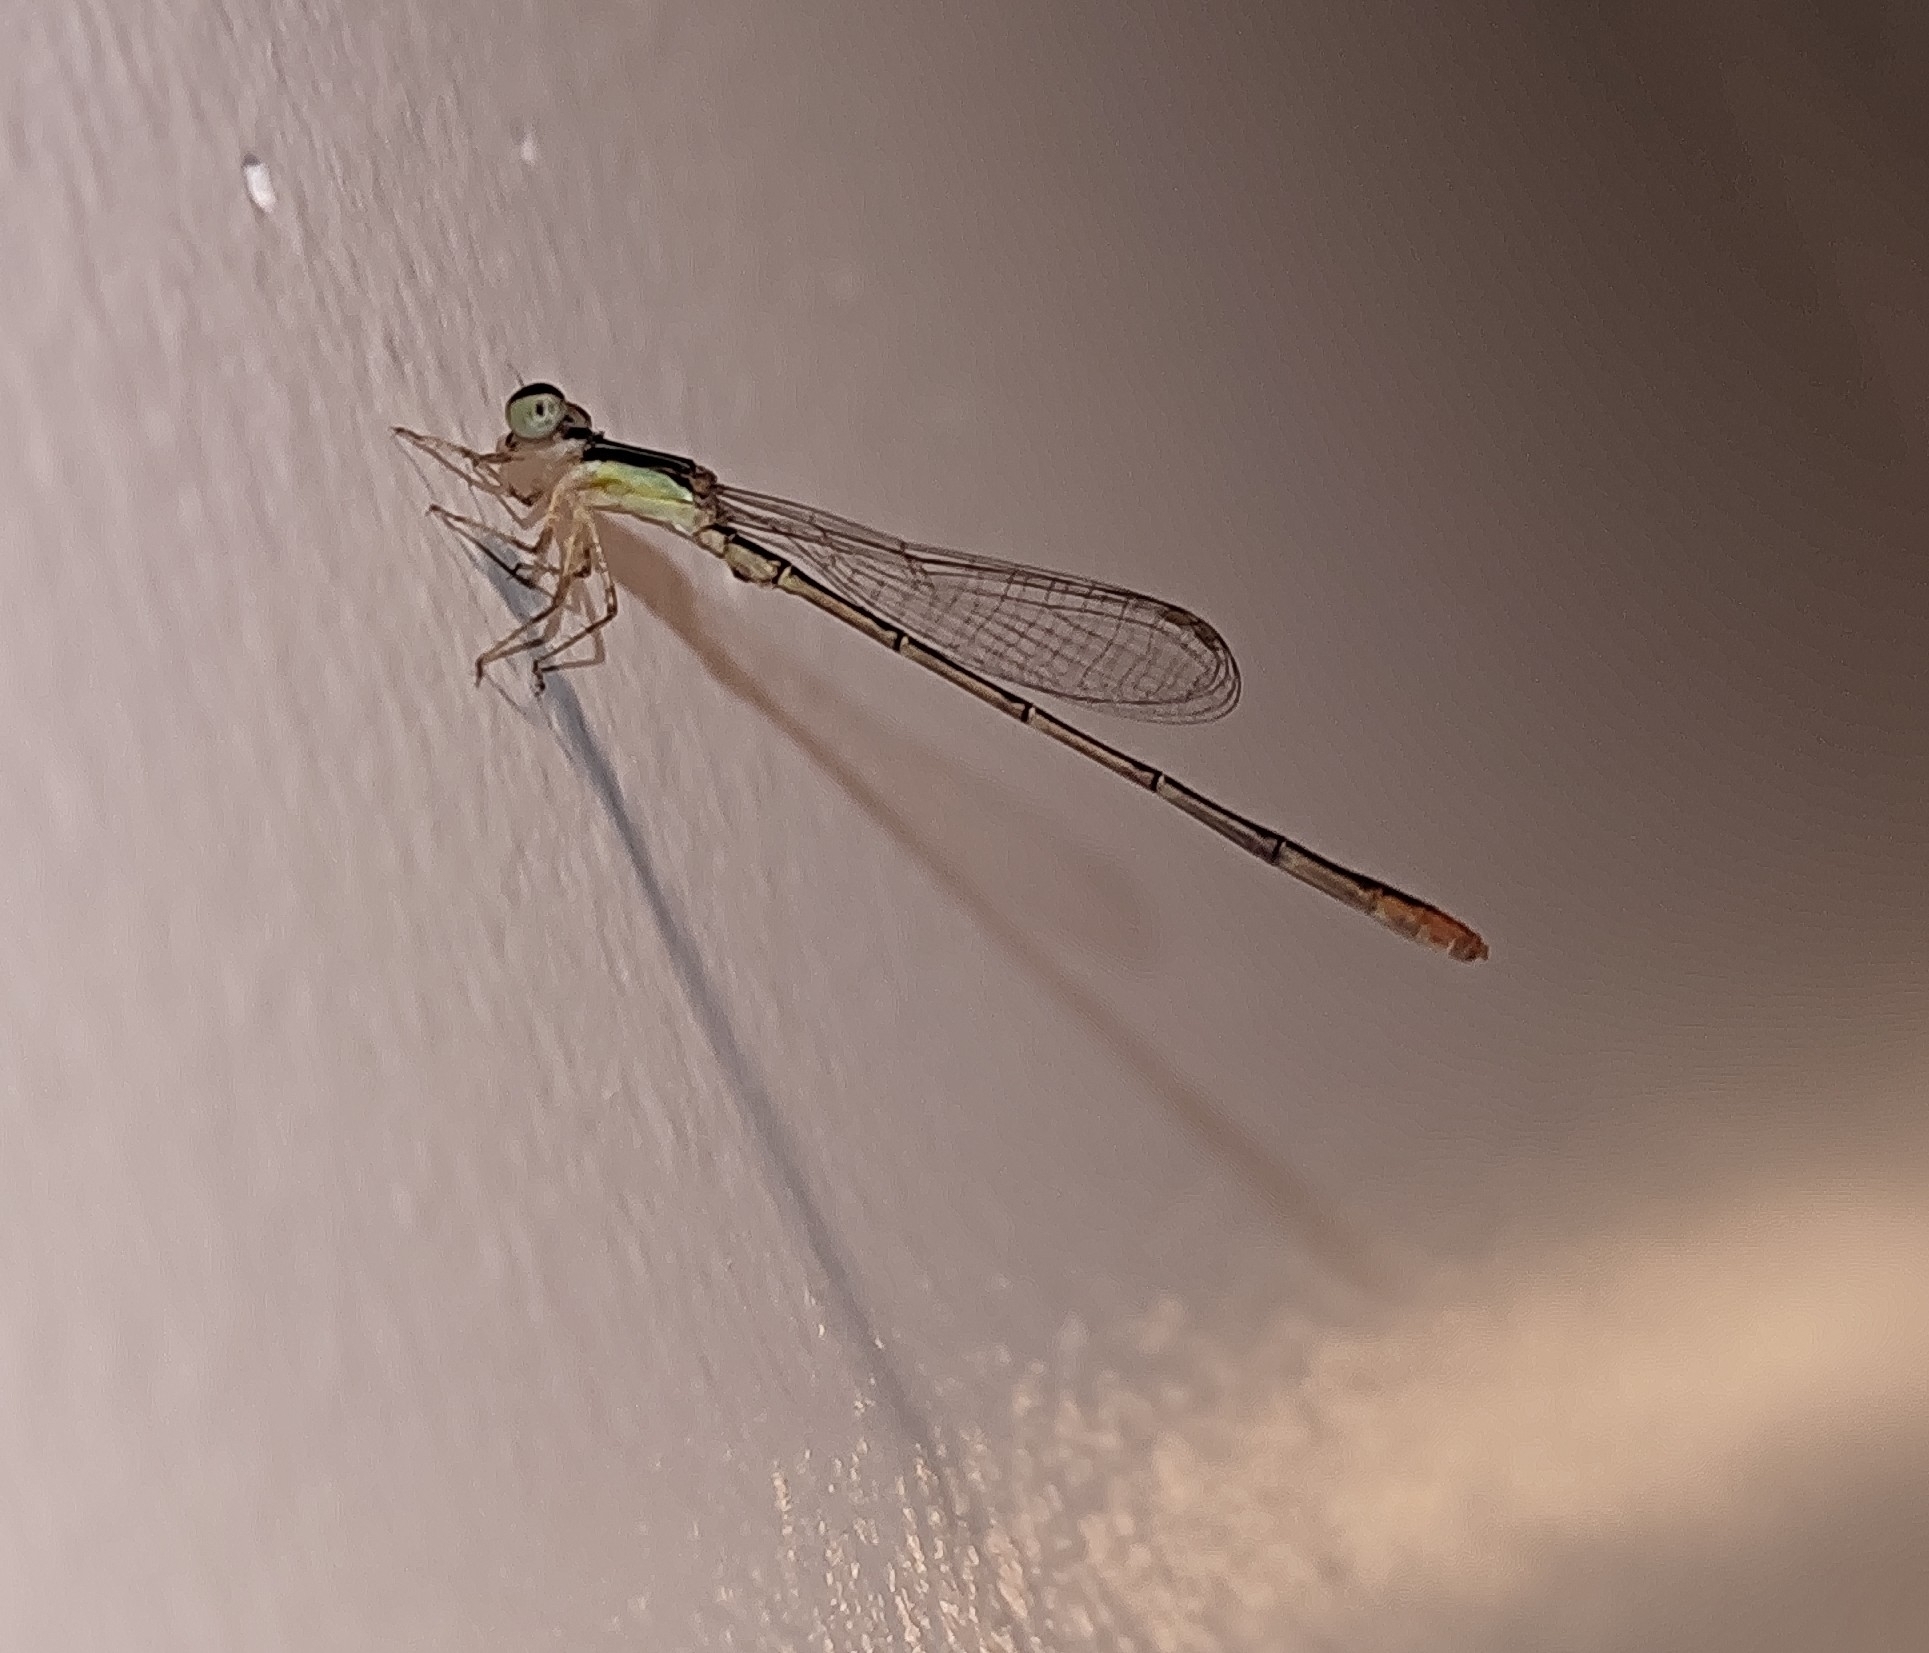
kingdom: Animalia
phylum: Arthropoda
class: Insecta
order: Odonata
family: Coenagrionidae
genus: Agriocnemis
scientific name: Agriocnemis pygmaea
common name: Pygmy wisp
